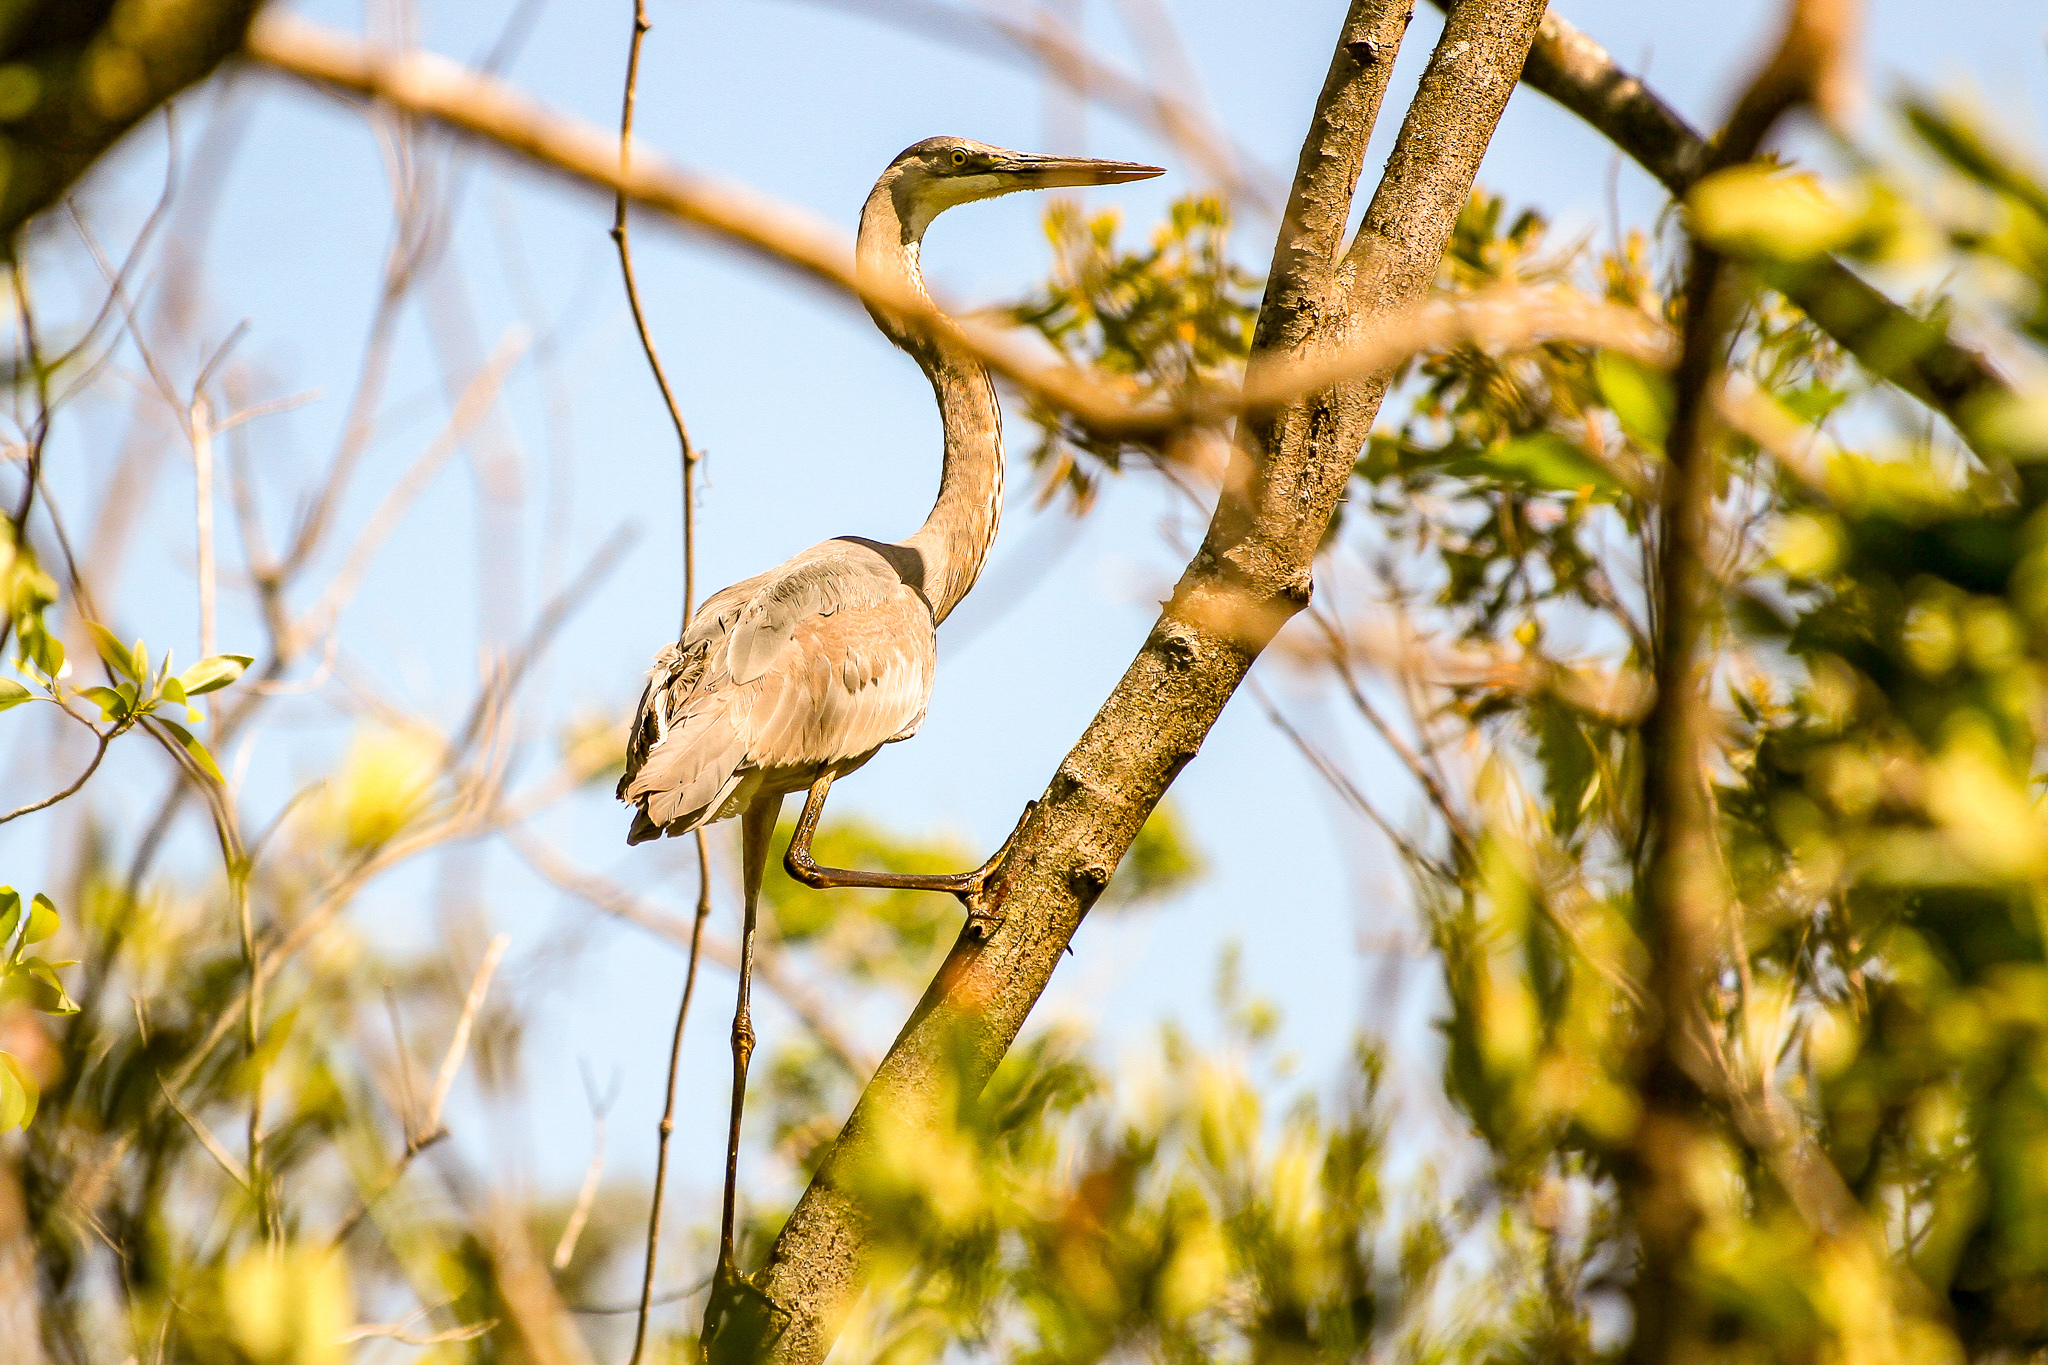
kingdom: Animalia
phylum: Chordata
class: Aves
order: Pelecaniformes
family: Ardeidae
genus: Ardea
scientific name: Ardea herodias
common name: Great blue heron
